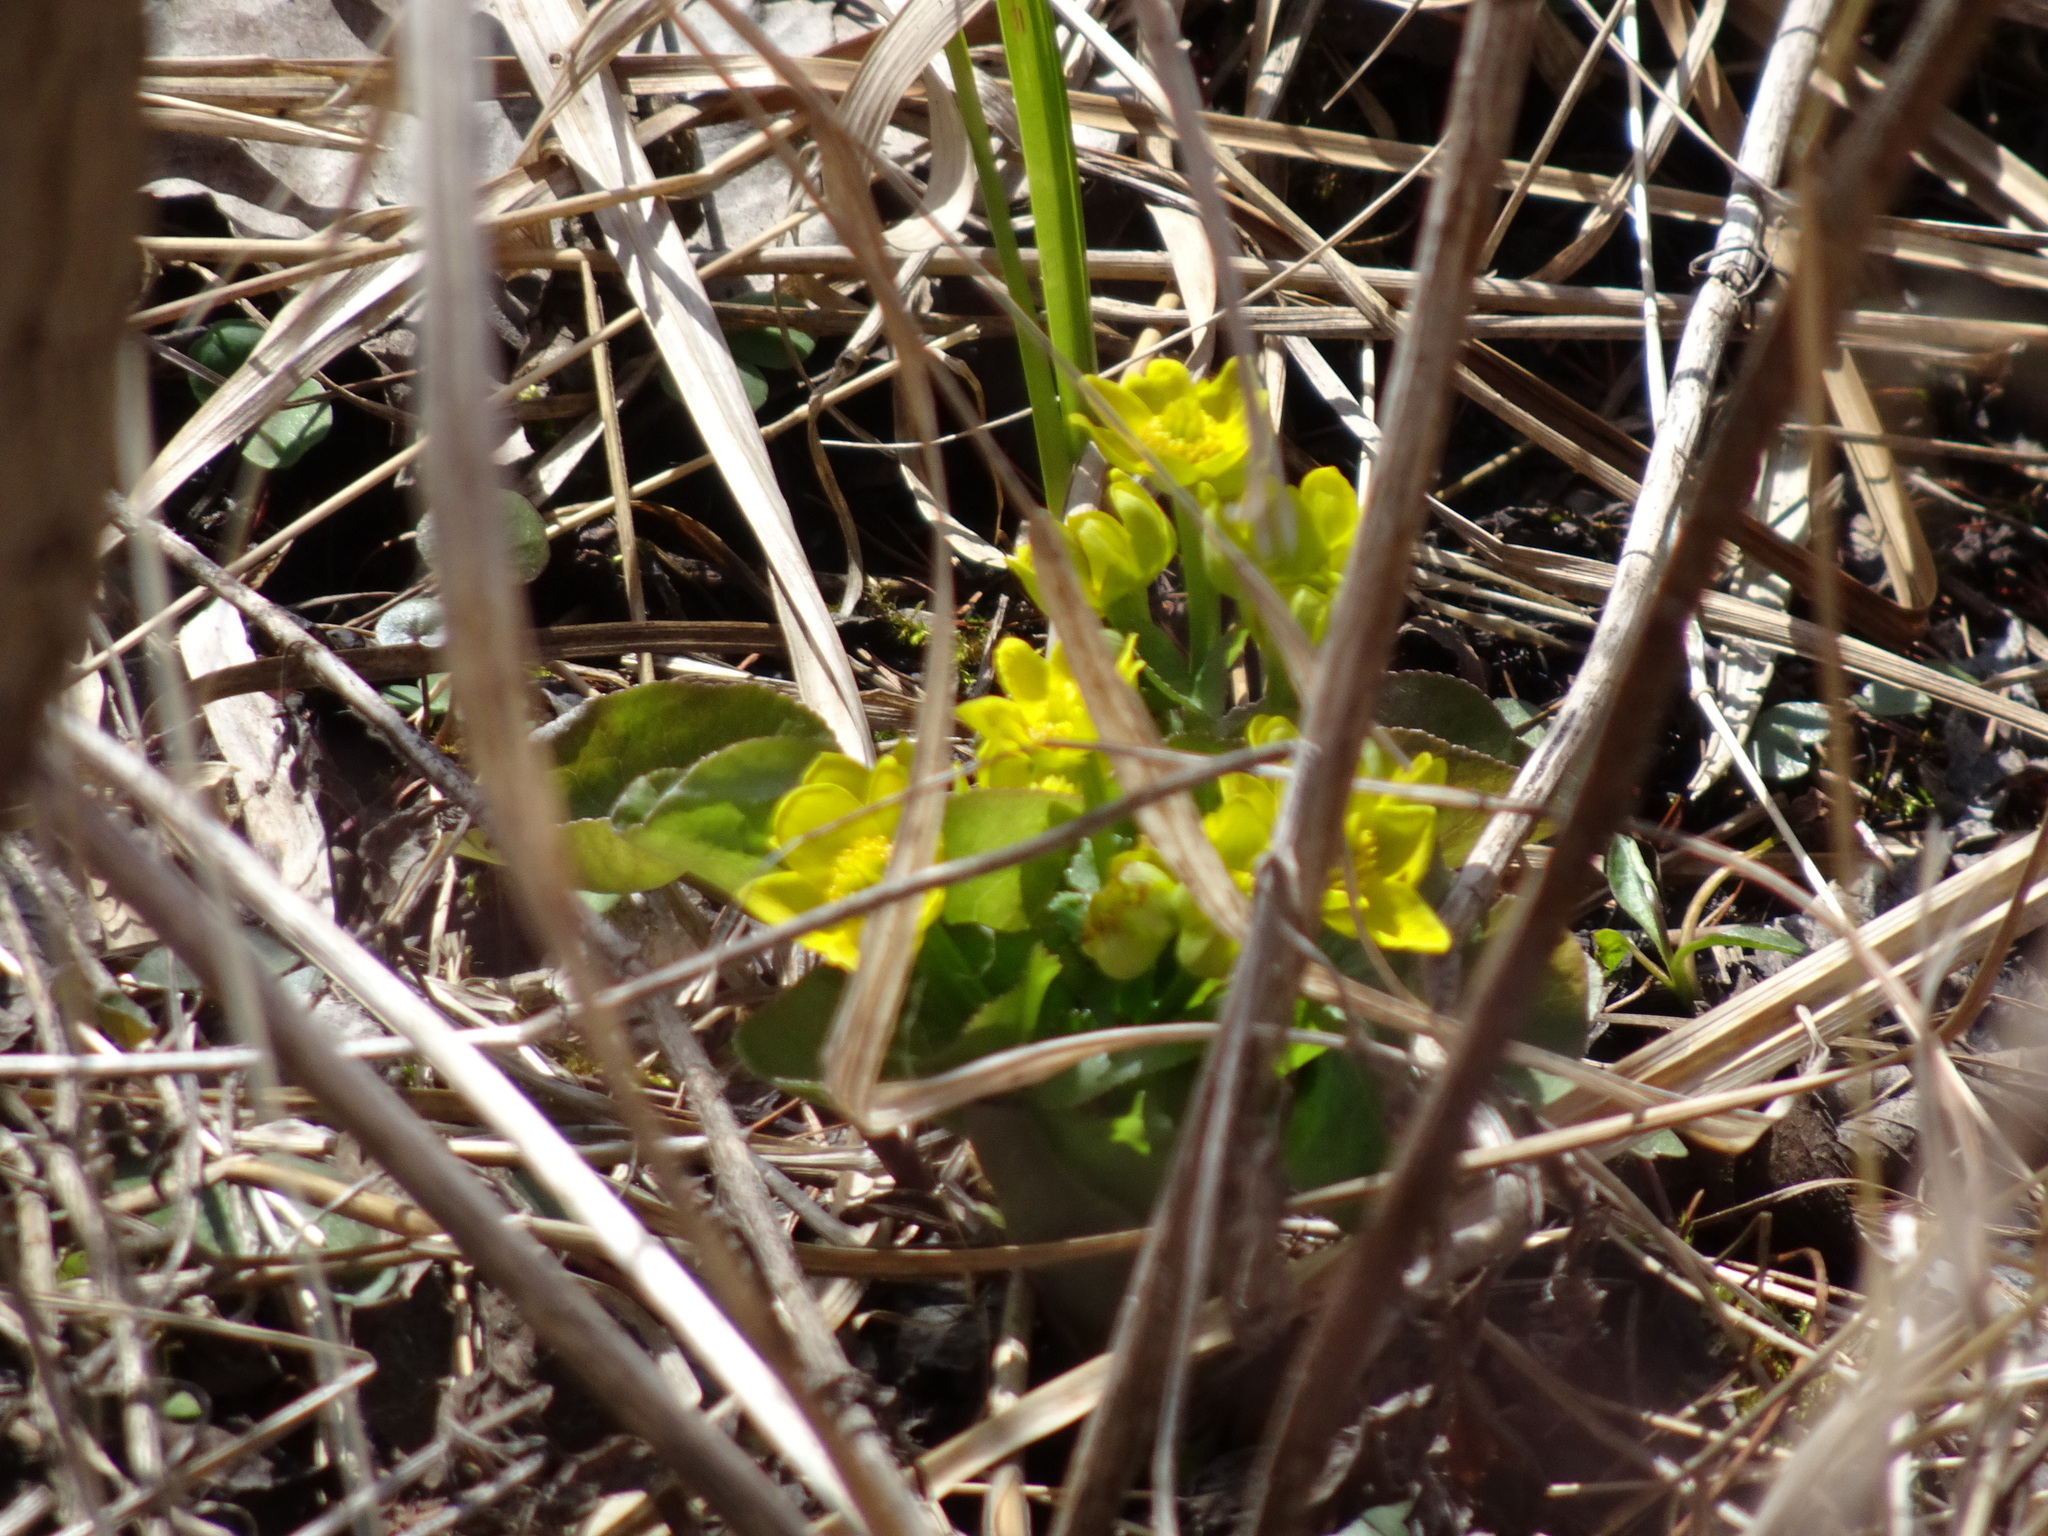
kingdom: Plantae
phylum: Tracheophyta
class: Magnoliopsida
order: Ranunculales
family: Ranunculaceae
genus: Caltha
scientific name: Caltha palustris
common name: Marsh marigold
